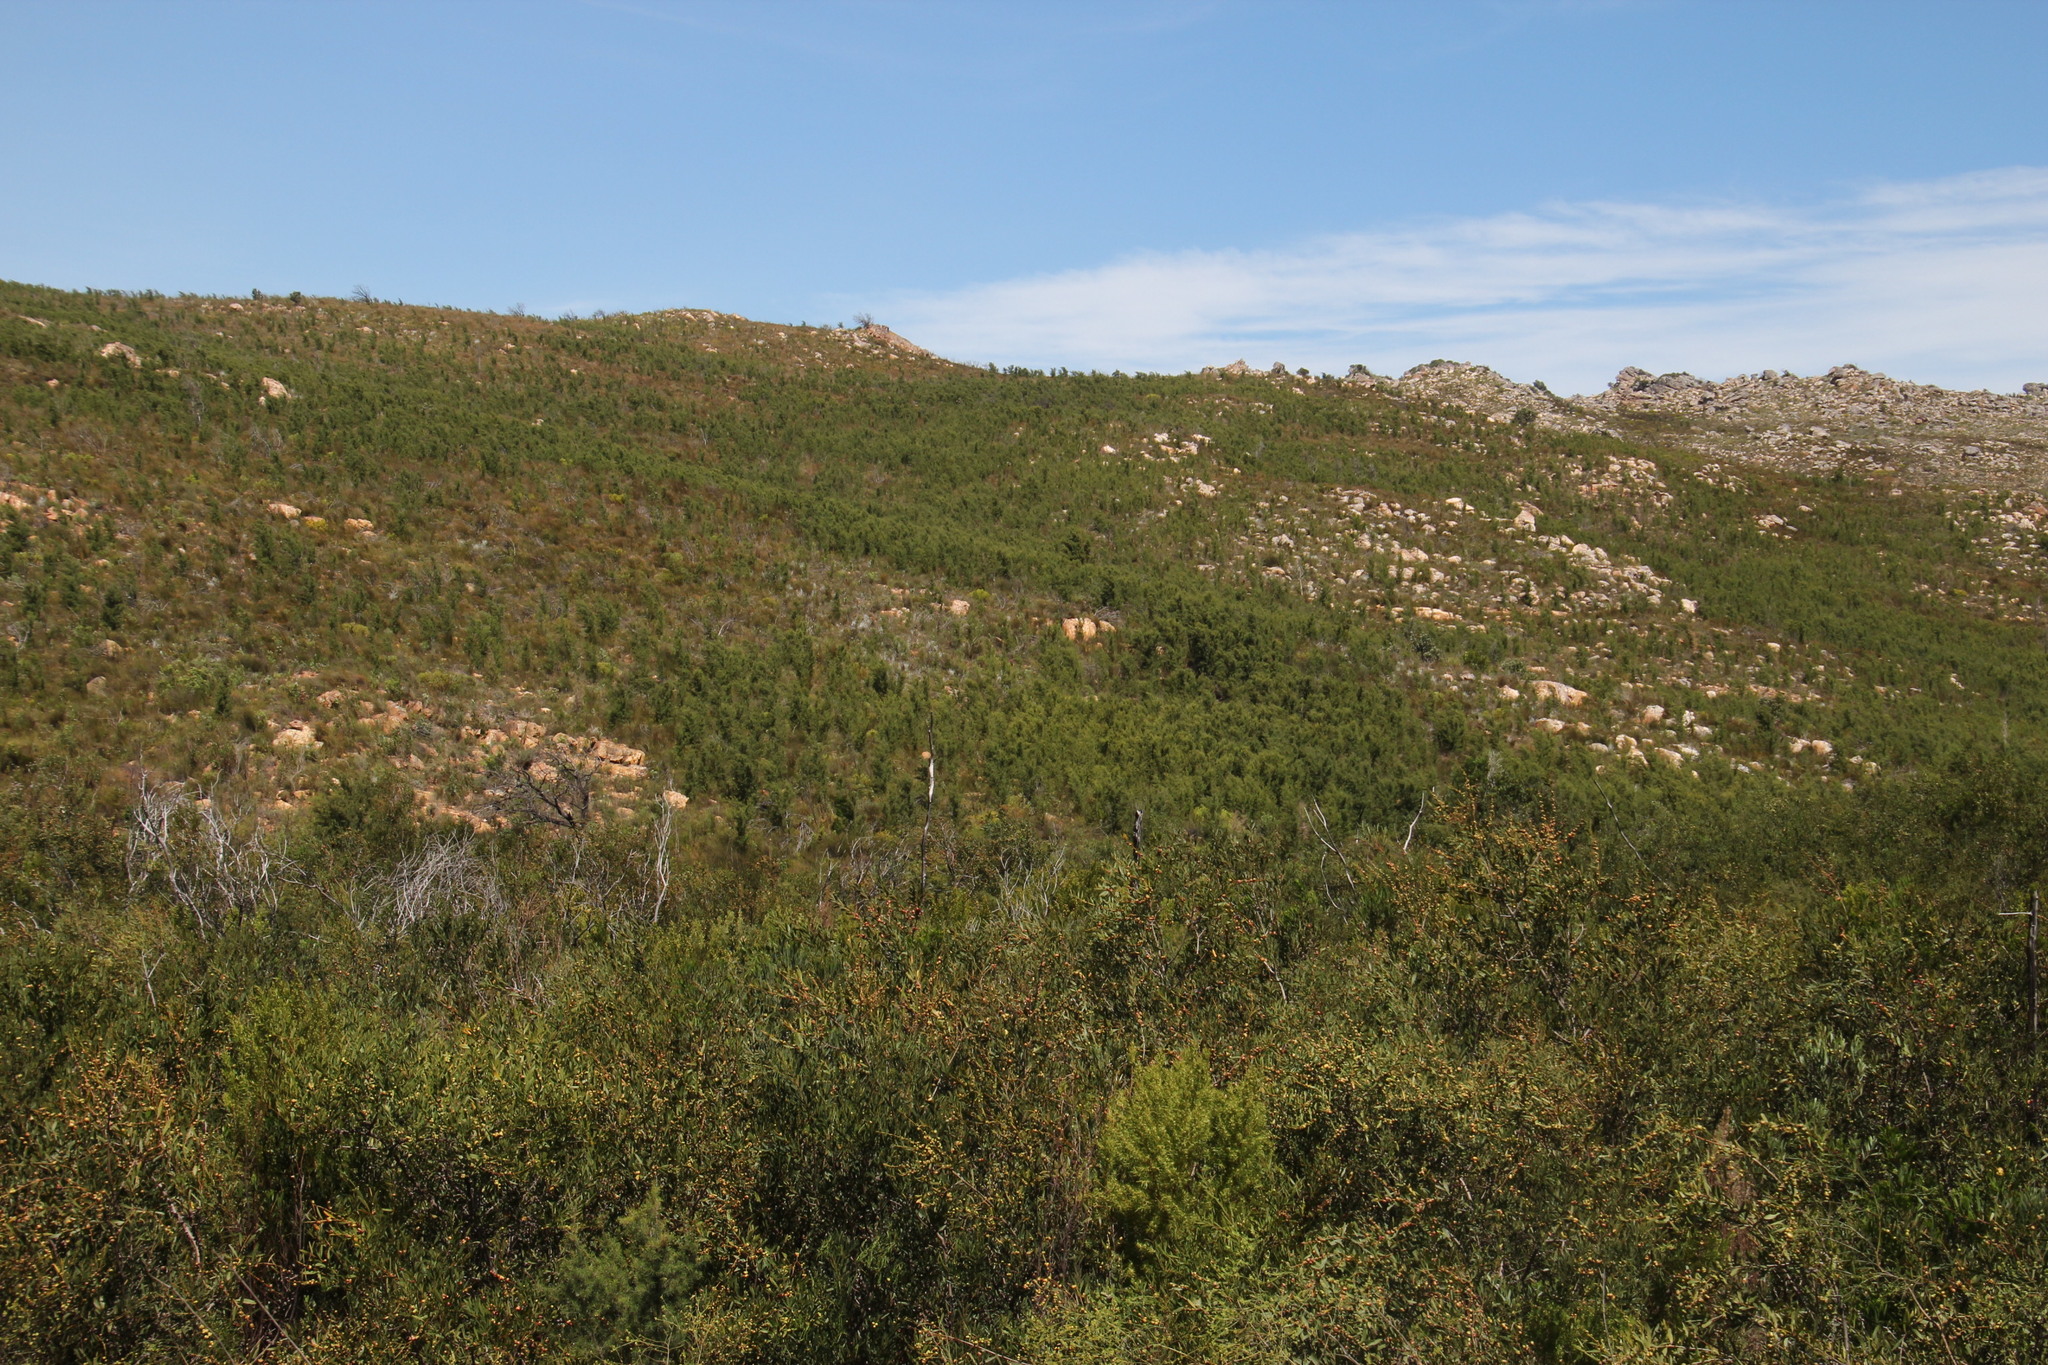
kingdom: Plantae
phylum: Tracheophyta
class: Magnoliopsida
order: Proteales
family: Proteaceae
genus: Hakea
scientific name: Hakea sericea
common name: Needle bush
